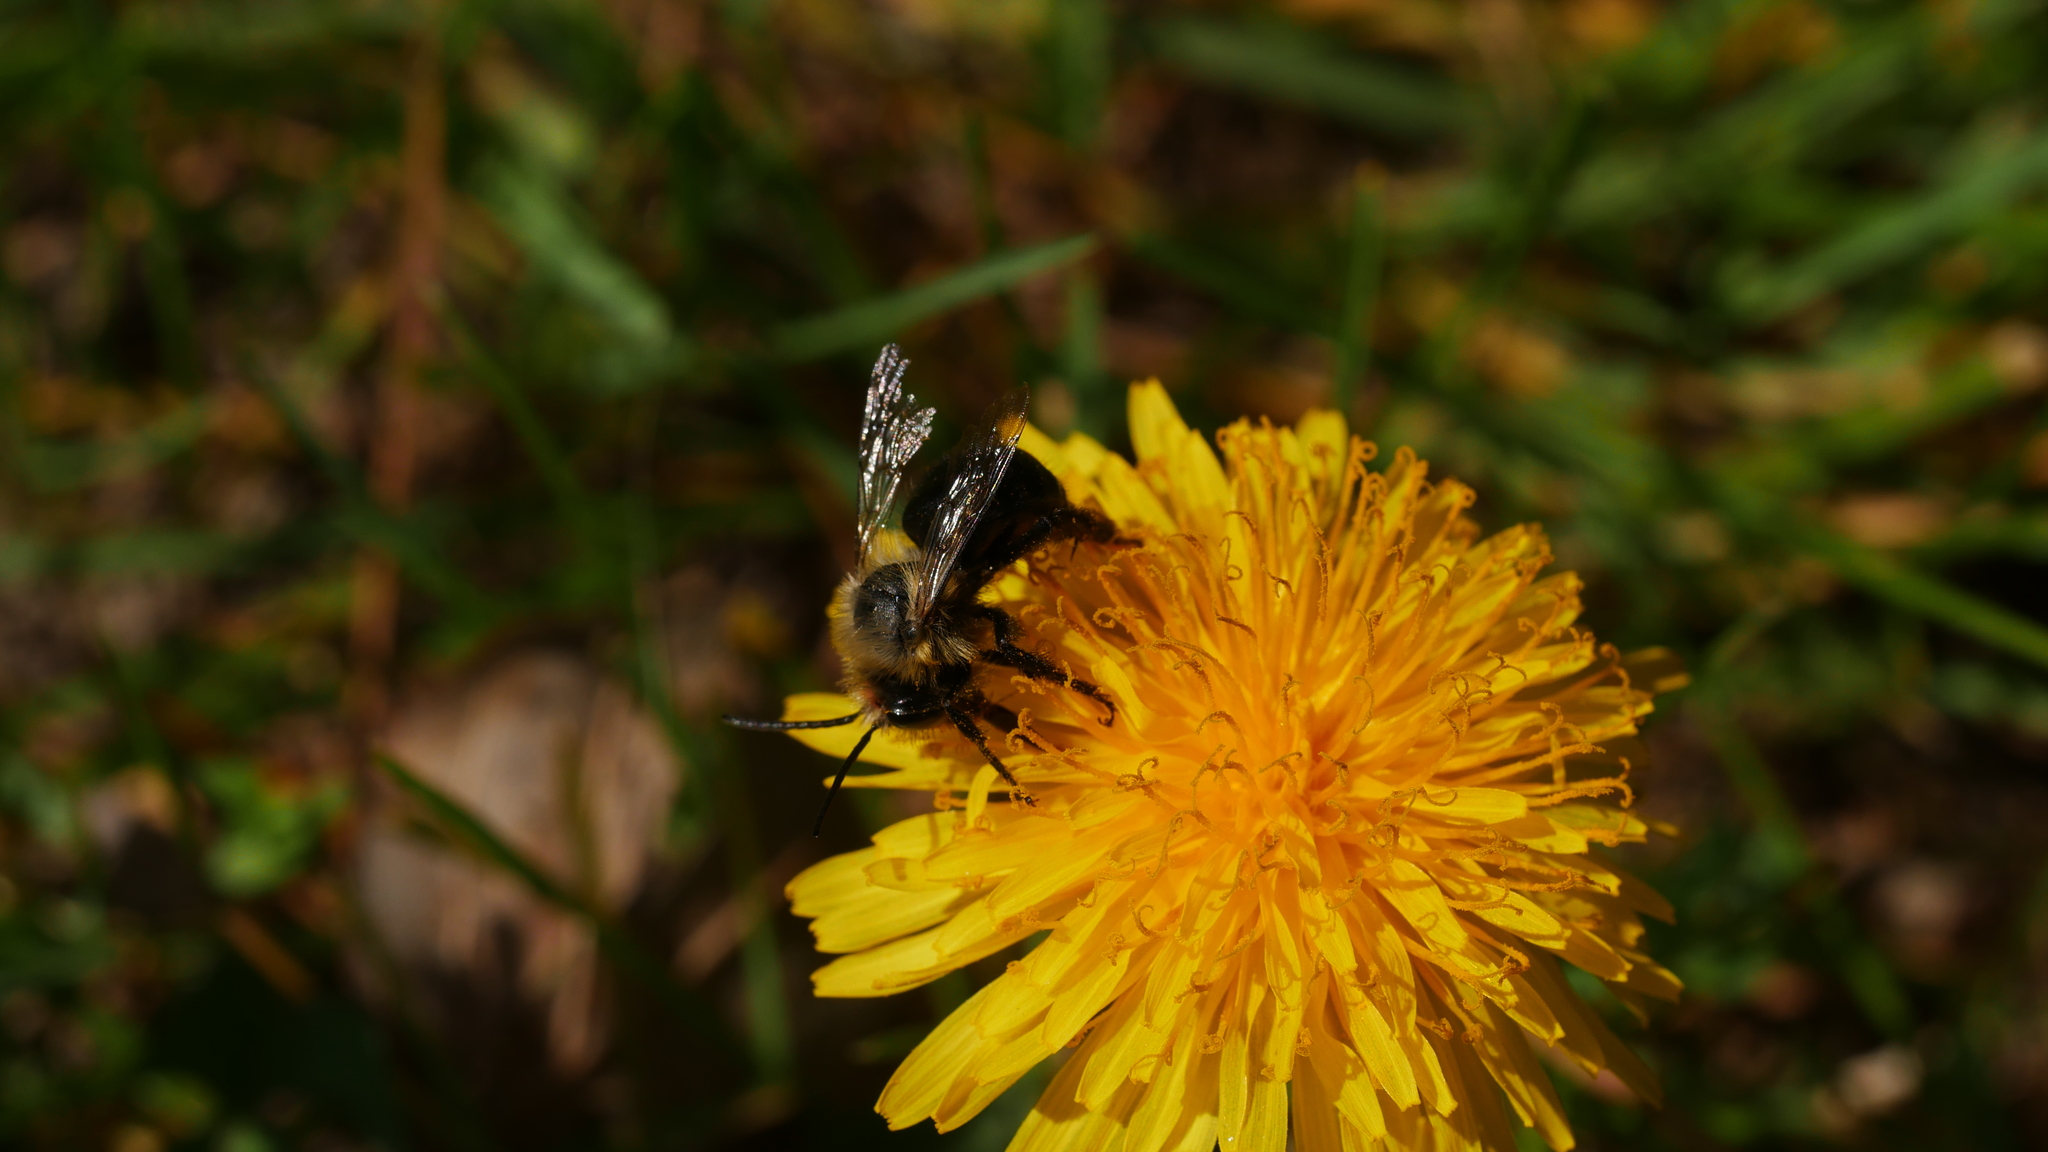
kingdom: Animalia
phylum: Arthropoda
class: Insecta
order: Hymenoptera
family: Apidae
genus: Habropoda
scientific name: Habropoda laboriosa
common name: Southeastern blueberry bee
